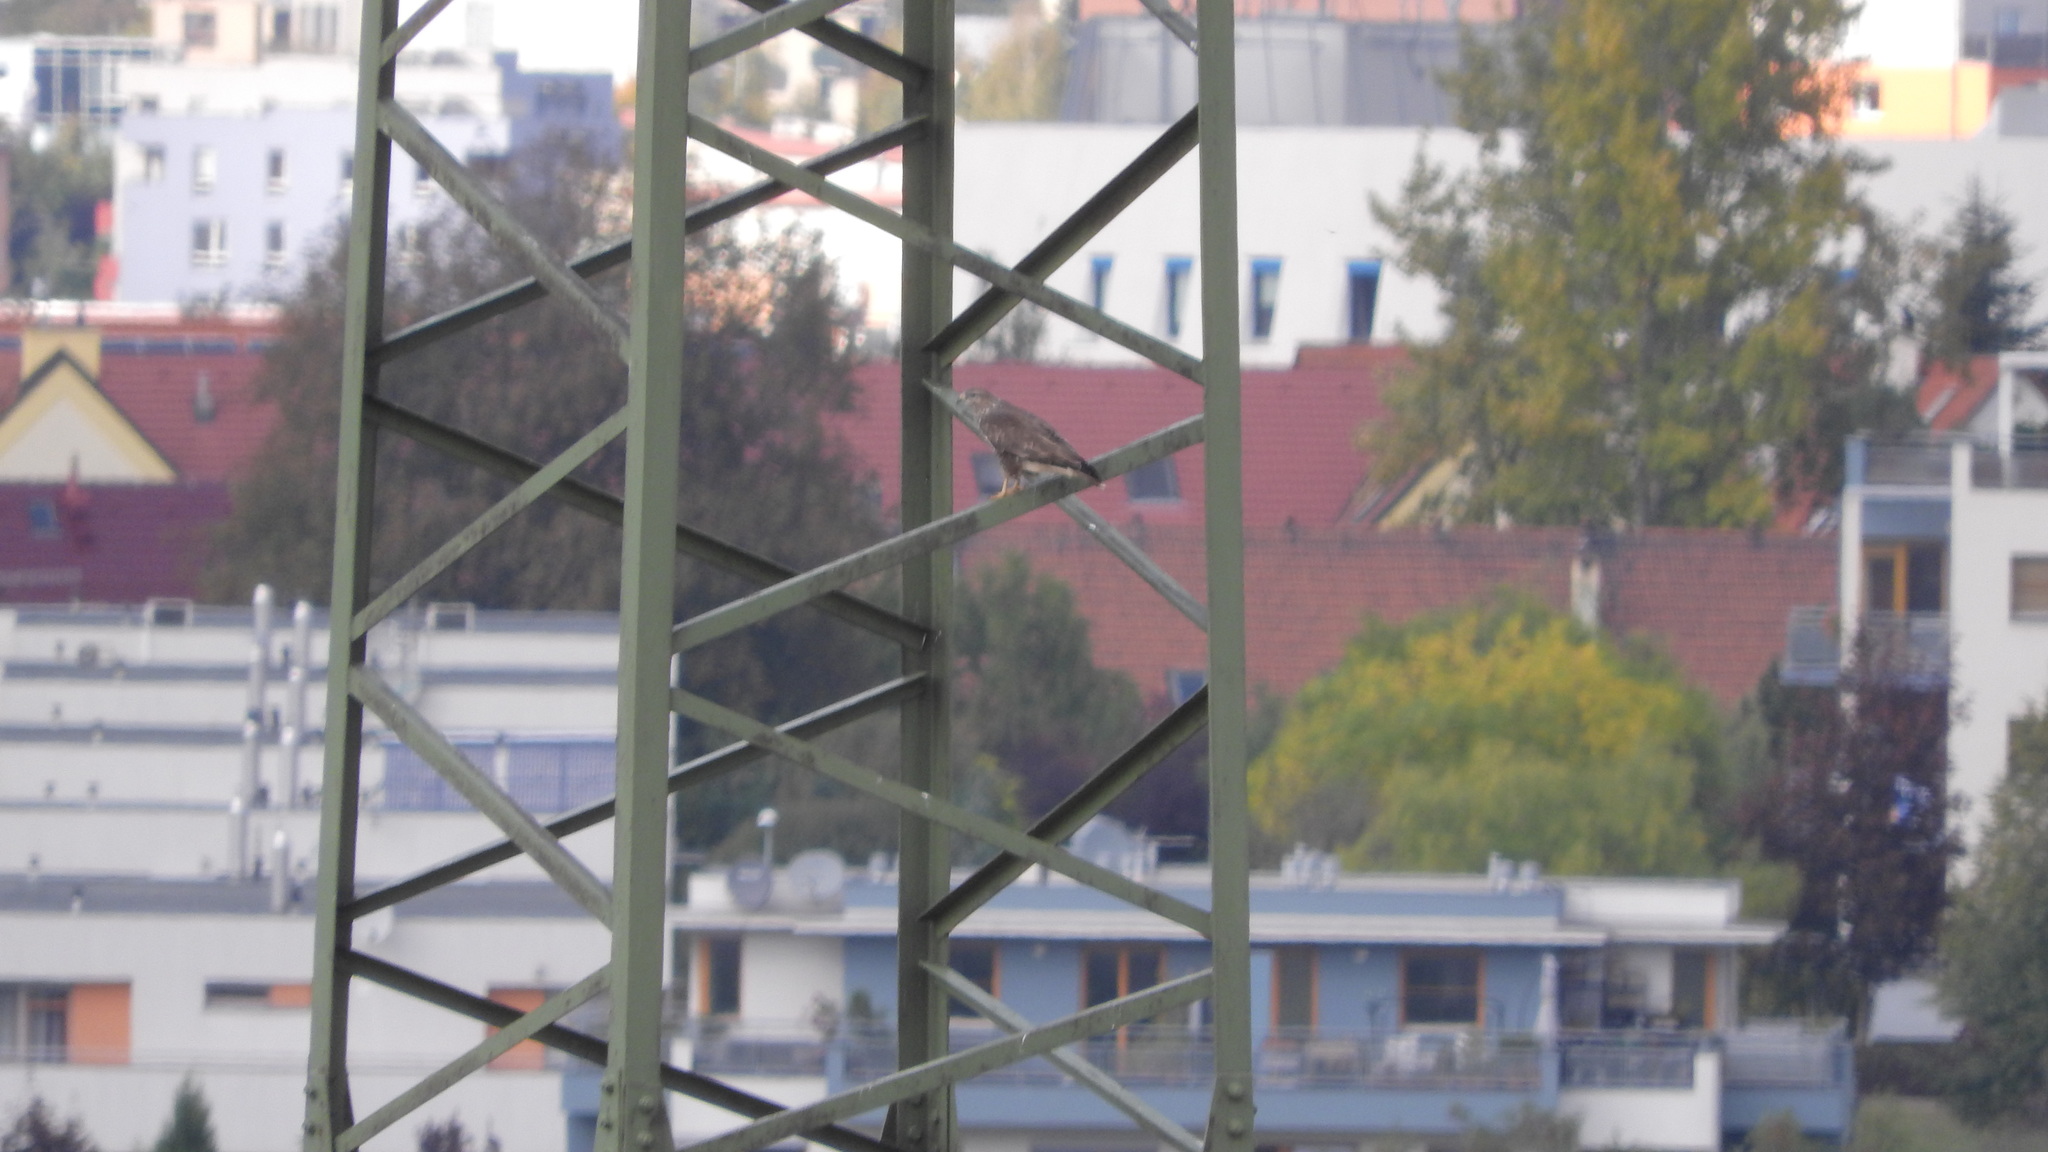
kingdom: Animalia
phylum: Chordata
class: Aves
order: Accipitriformes
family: Accipitridae
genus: Buteo
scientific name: Buteo buteo
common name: Common buzzard
